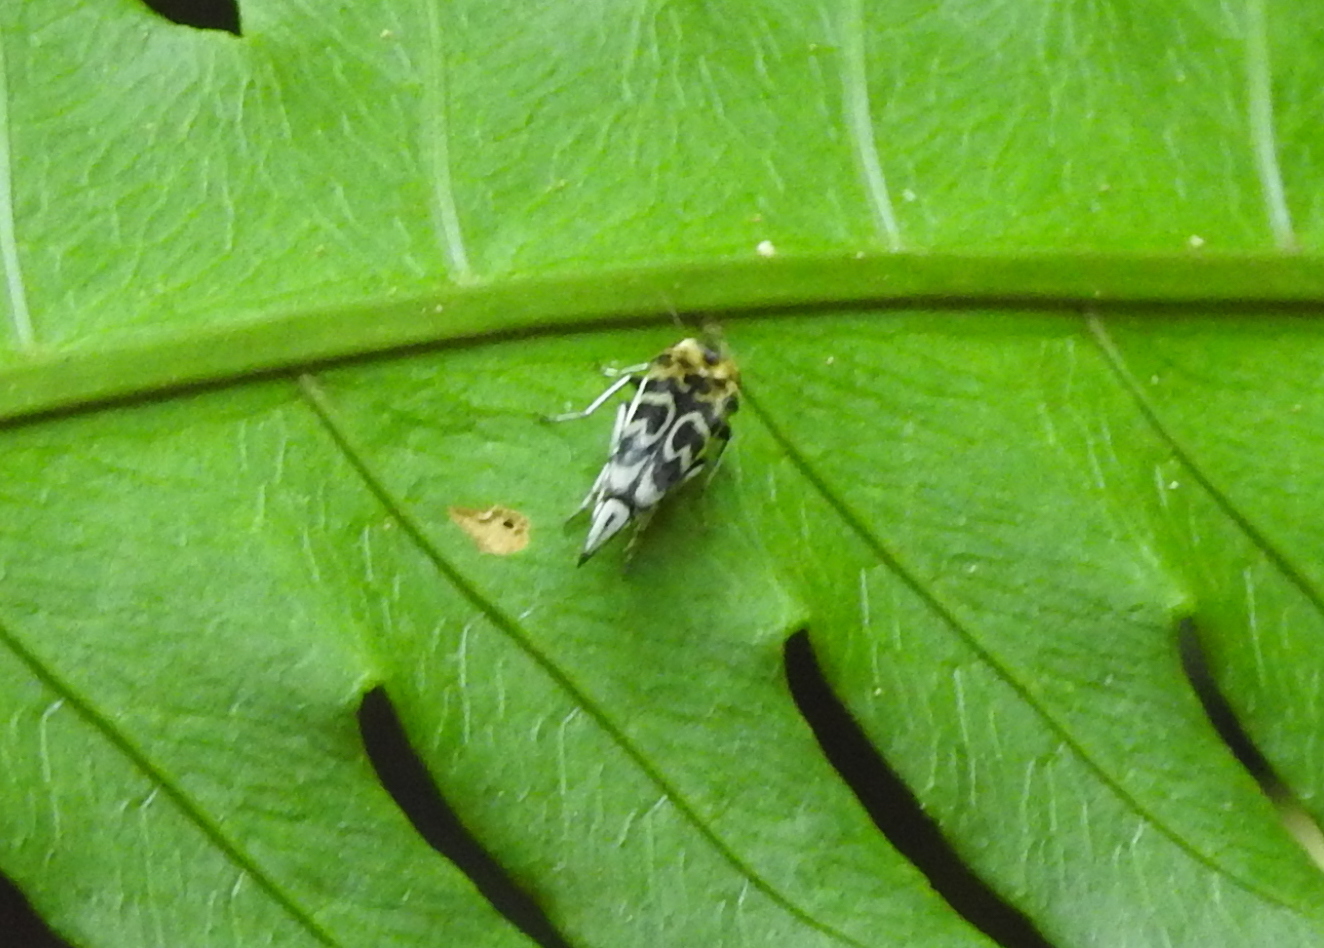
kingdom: Animalia
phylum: Arthropoda
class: Insecta
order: Coleoptera
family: Mordellidae
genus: Glipa
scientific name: Glipa
